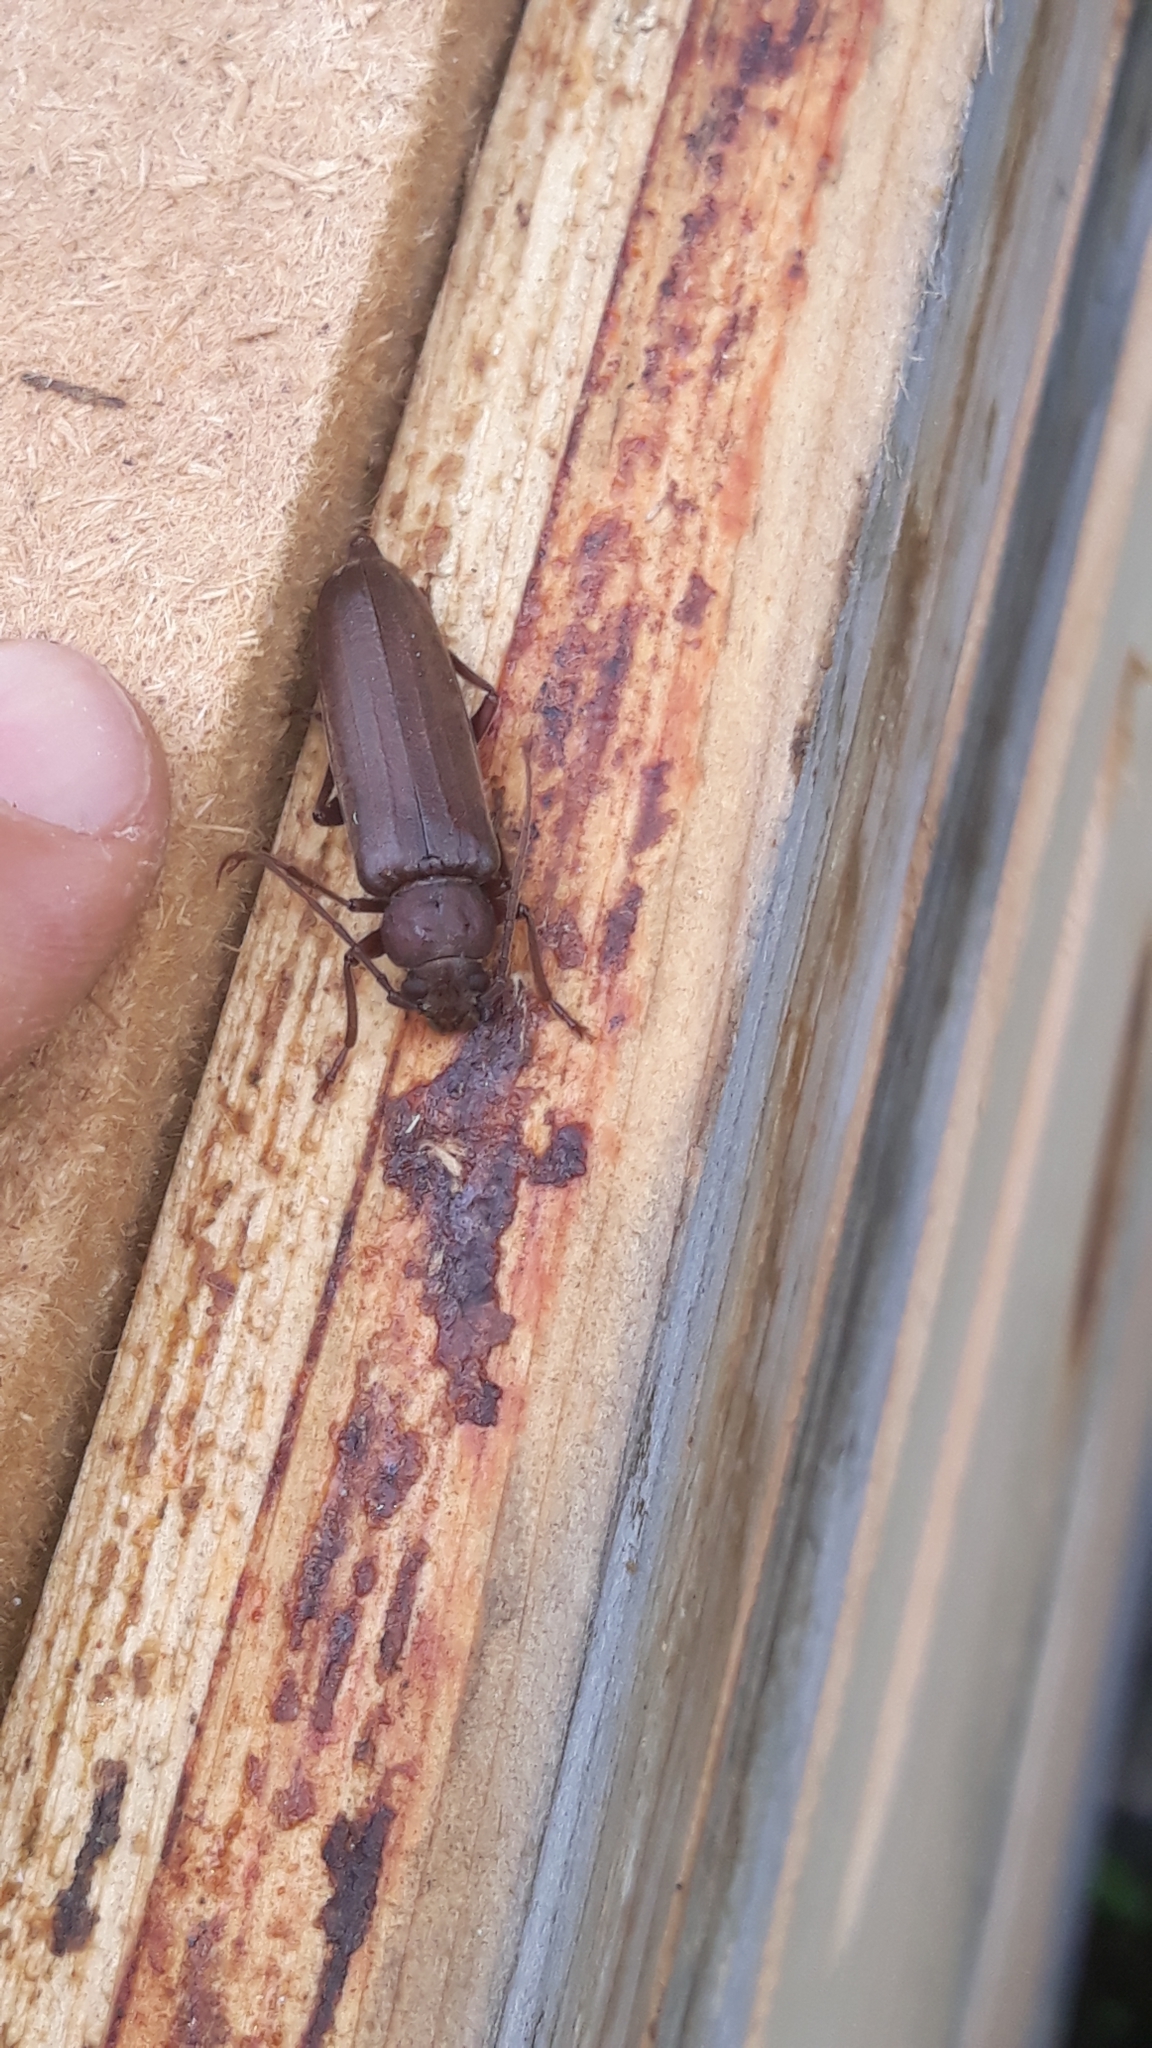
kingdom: Animalia
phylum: Arthropoda
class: Insecta
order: Coleoptera
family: Cerambycidae
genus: Arhopalus
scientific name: Arhopalus rusticus
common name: Rust pine borer
